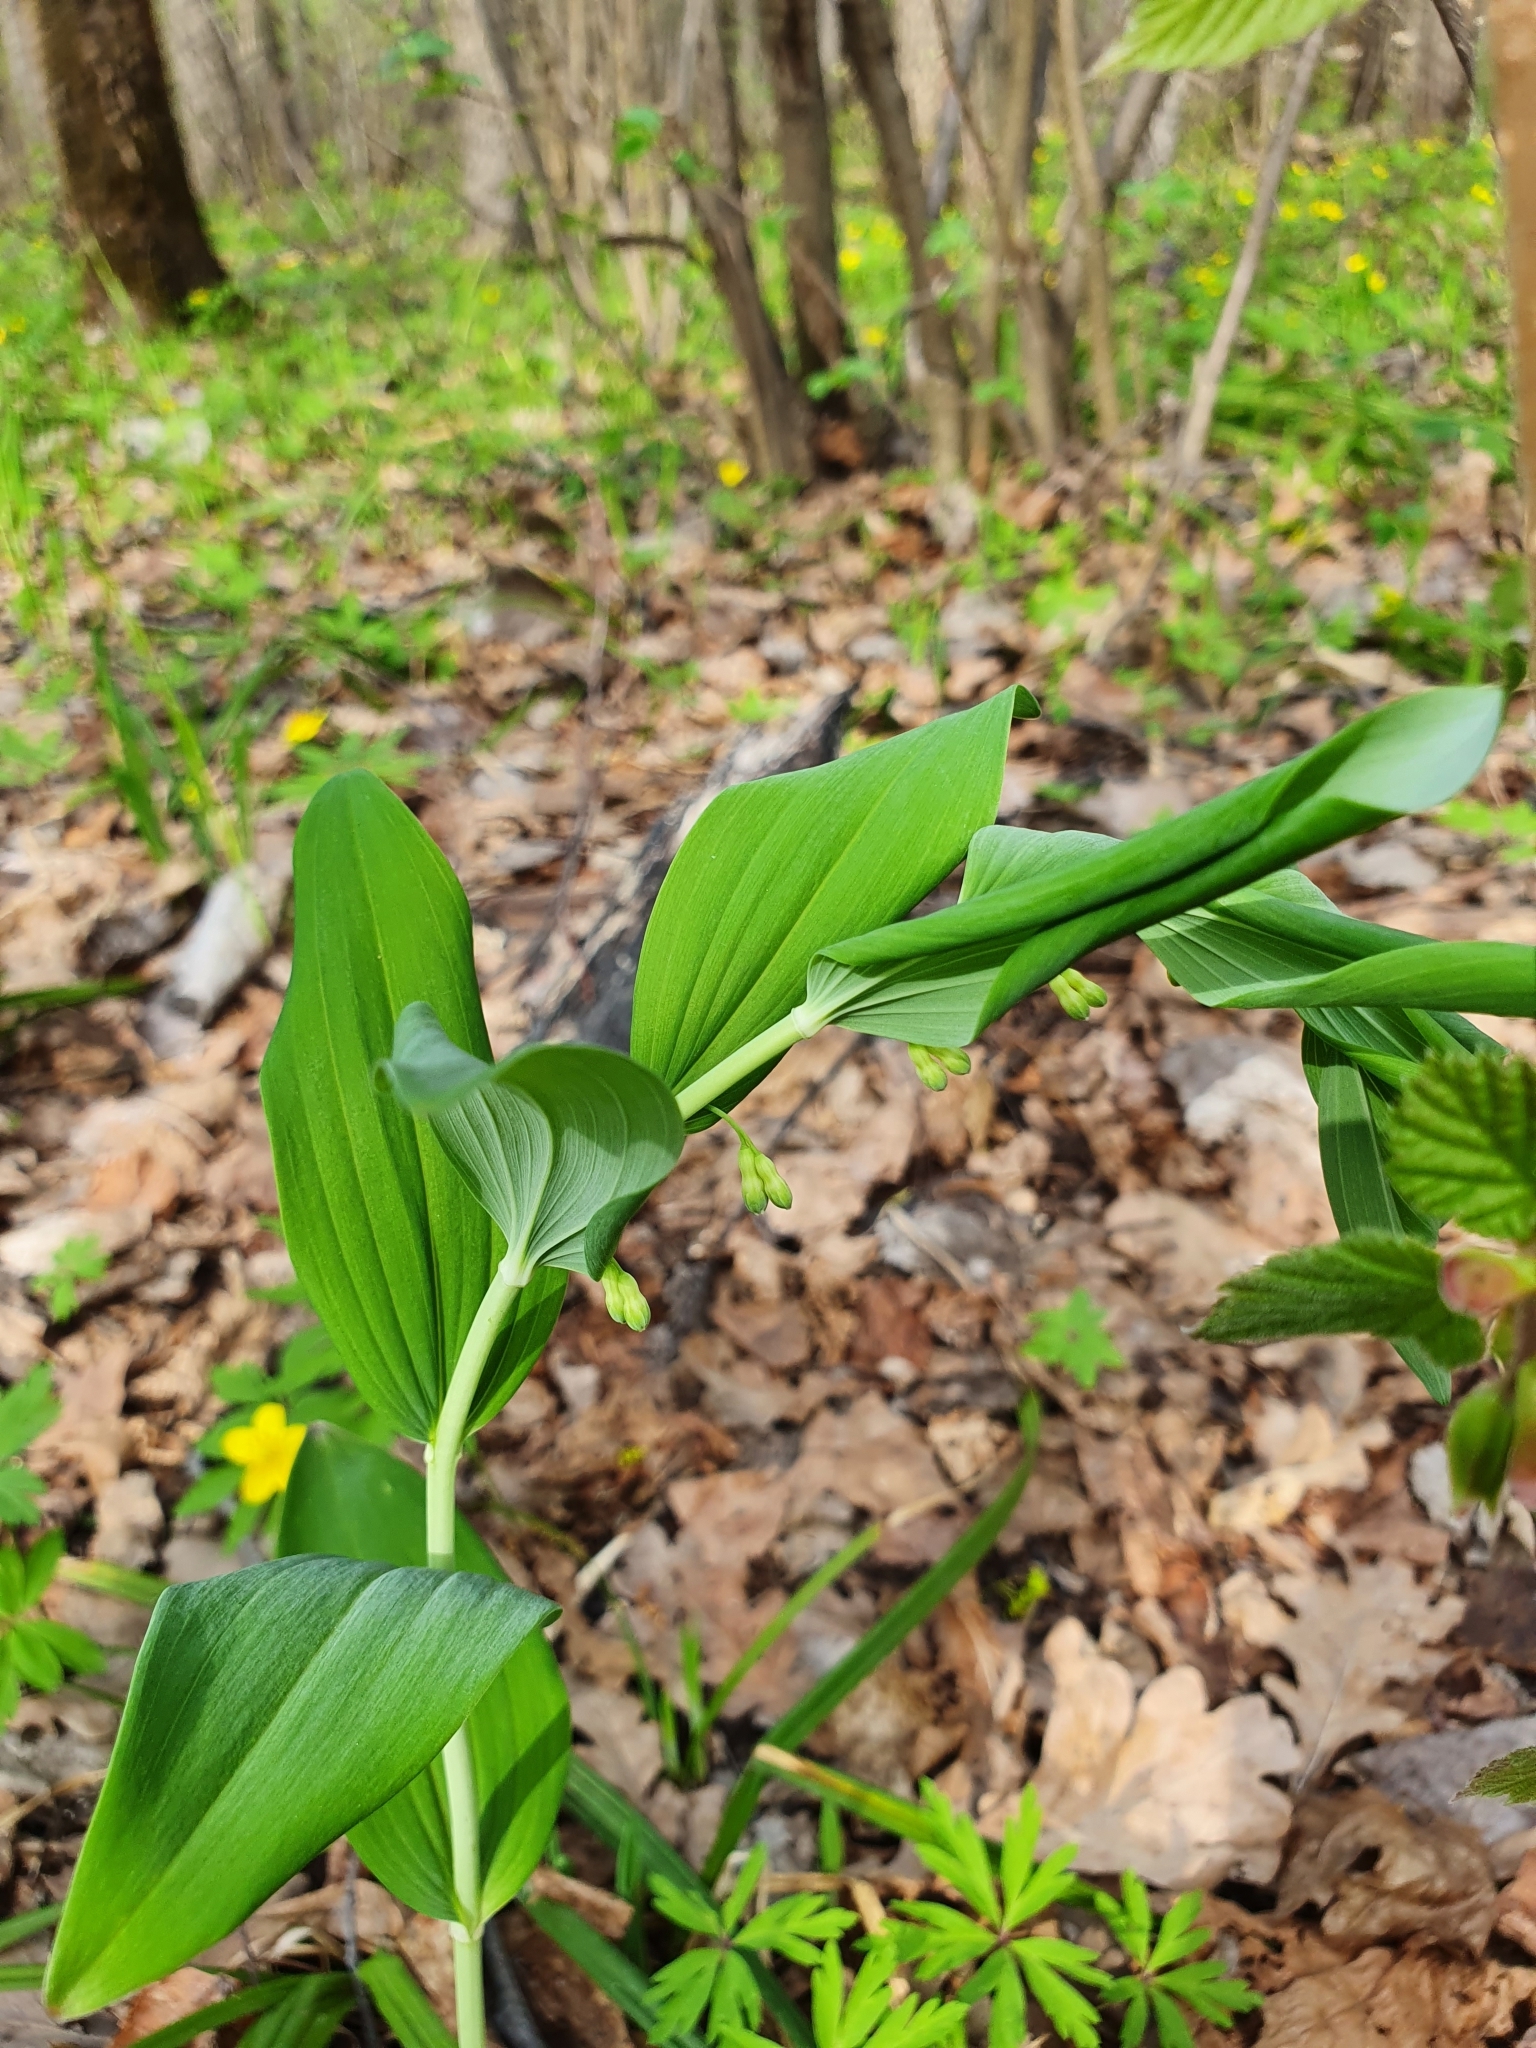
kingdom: Plantae
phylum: Tracheophyta
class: Liliopsida
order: Asparagales
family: Asparagaceae
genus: Polygonatum
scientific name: Polygonatum odoratum
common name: Angular solomon's-seal
